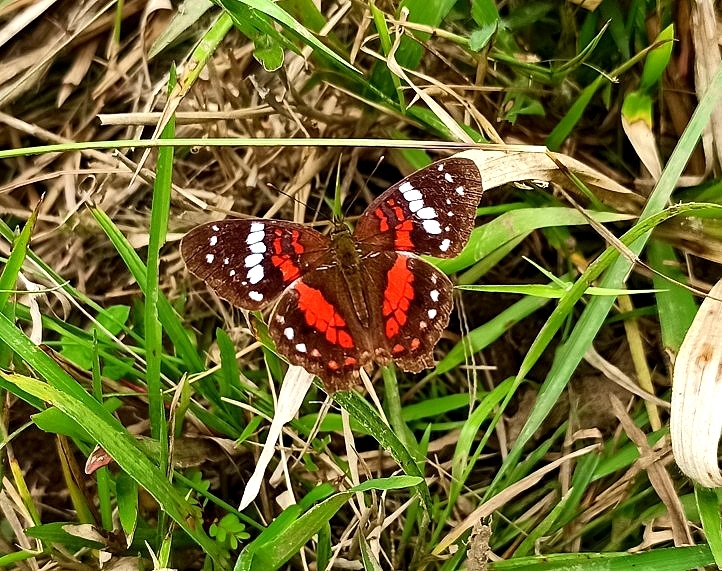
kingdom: Animalia
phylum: Arthropoda
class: Insecta
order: Lepidoptera
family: Nymphalidae
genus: Anartia
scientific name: Anartia amathea
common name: Red peacock
